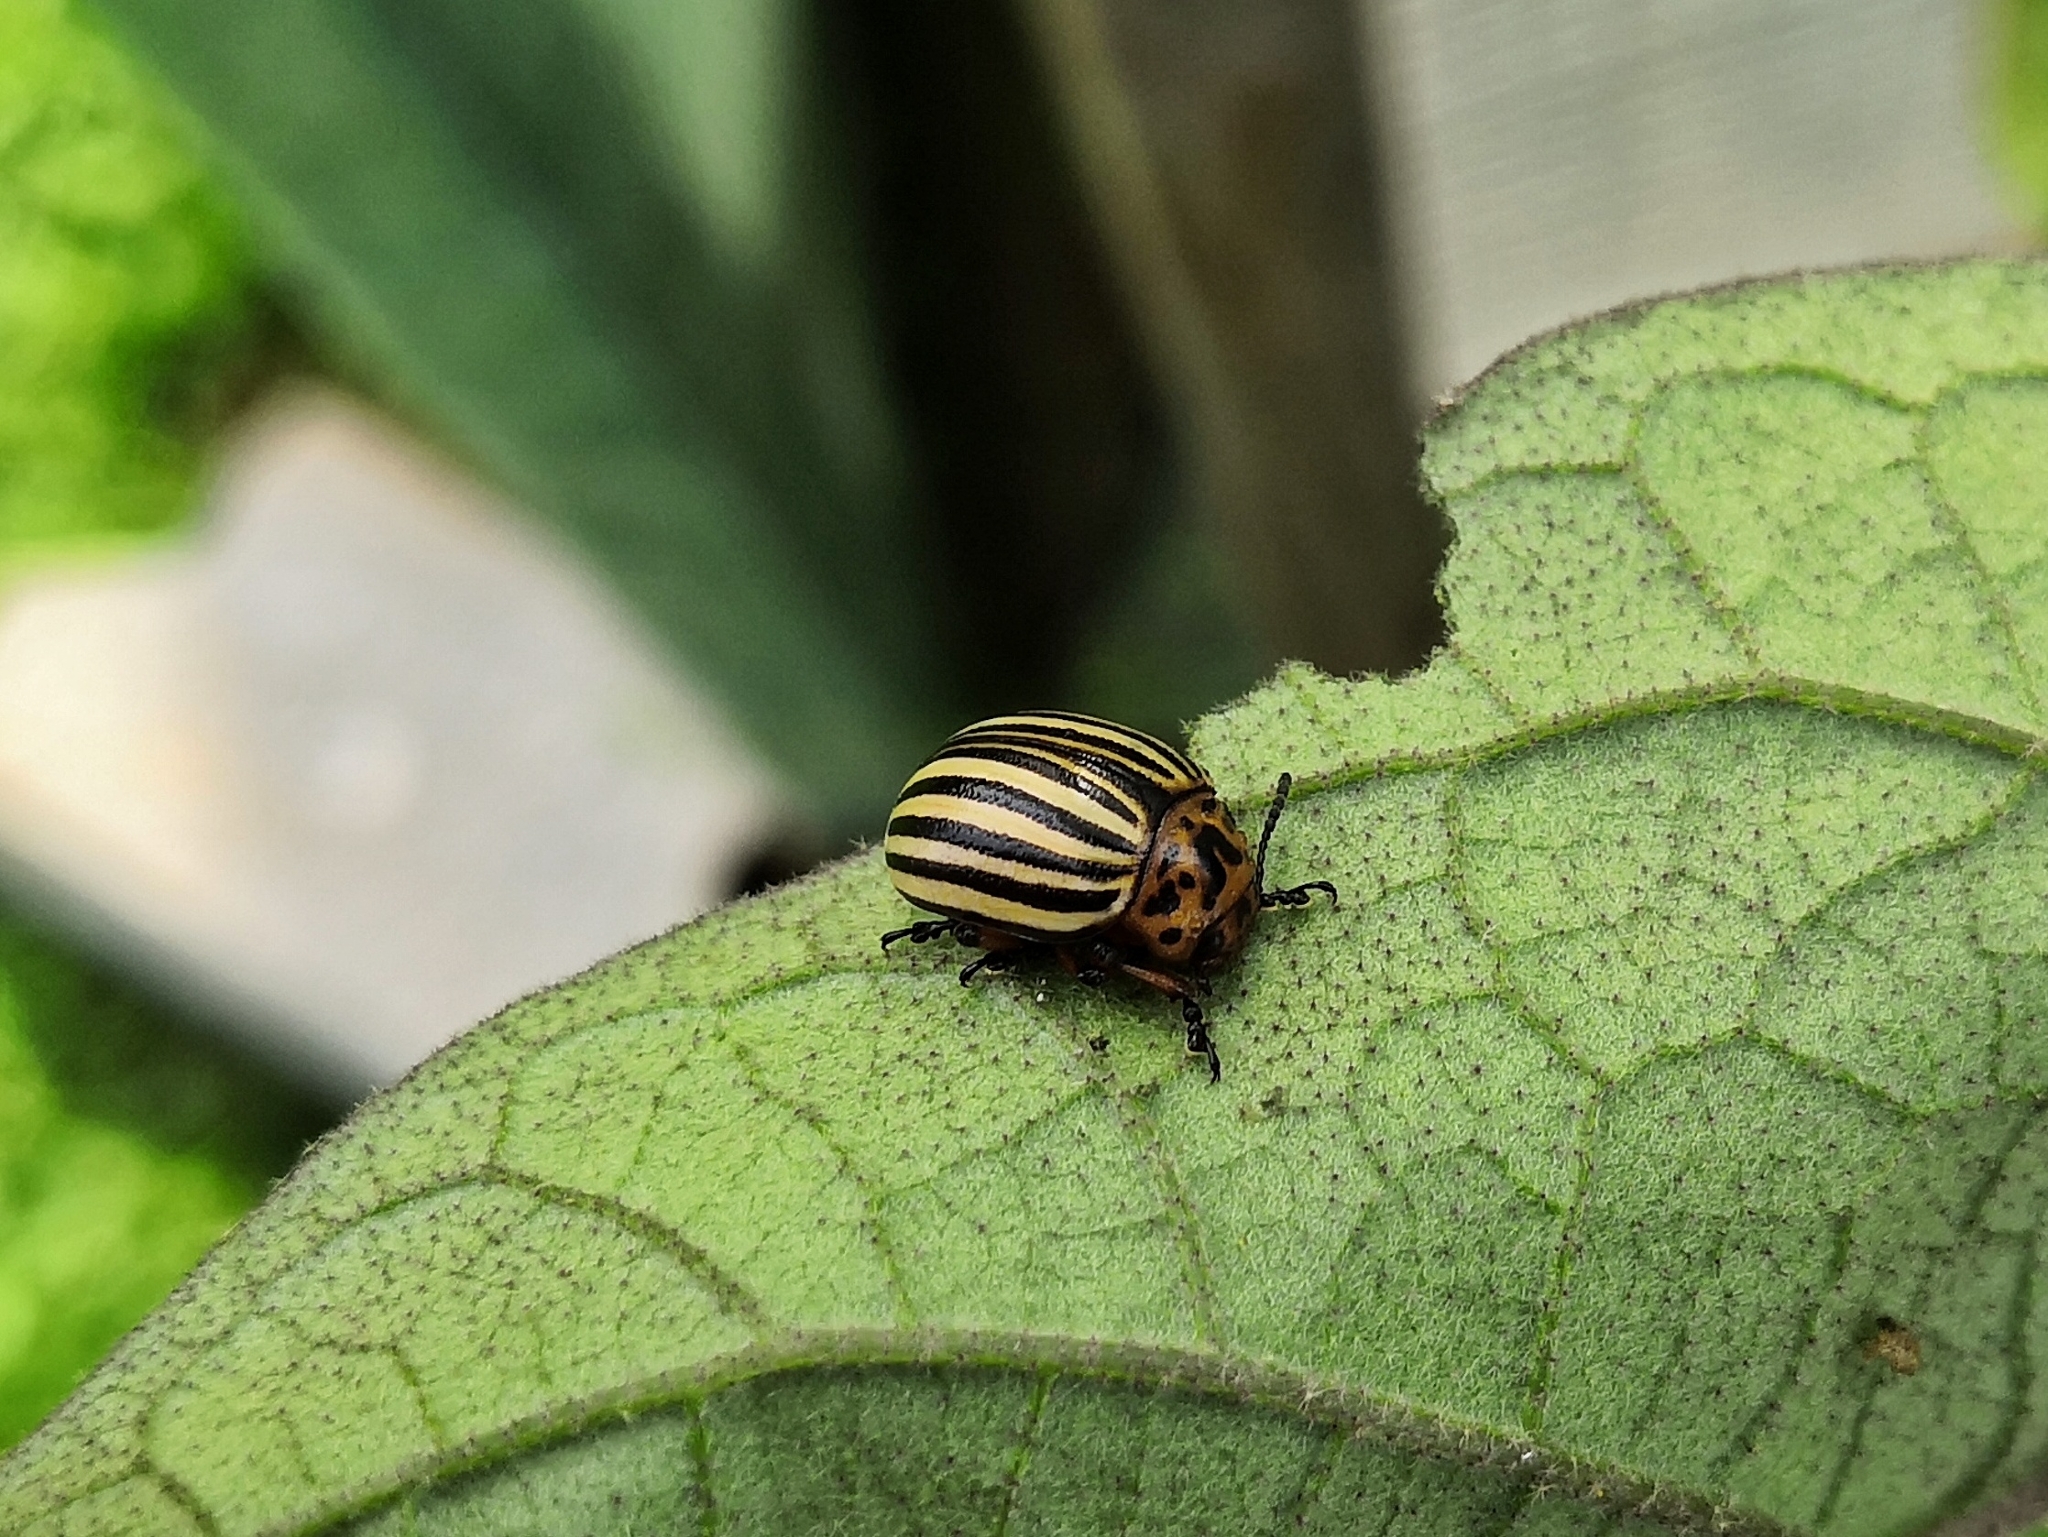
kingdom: Animalia
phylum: Arthropoda
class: Insecta
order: Coleoptera
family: Chrysomelidae
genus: Leptinotarsa
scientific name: Leptinotarsa decemlineata
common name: Colorado potato beetle
